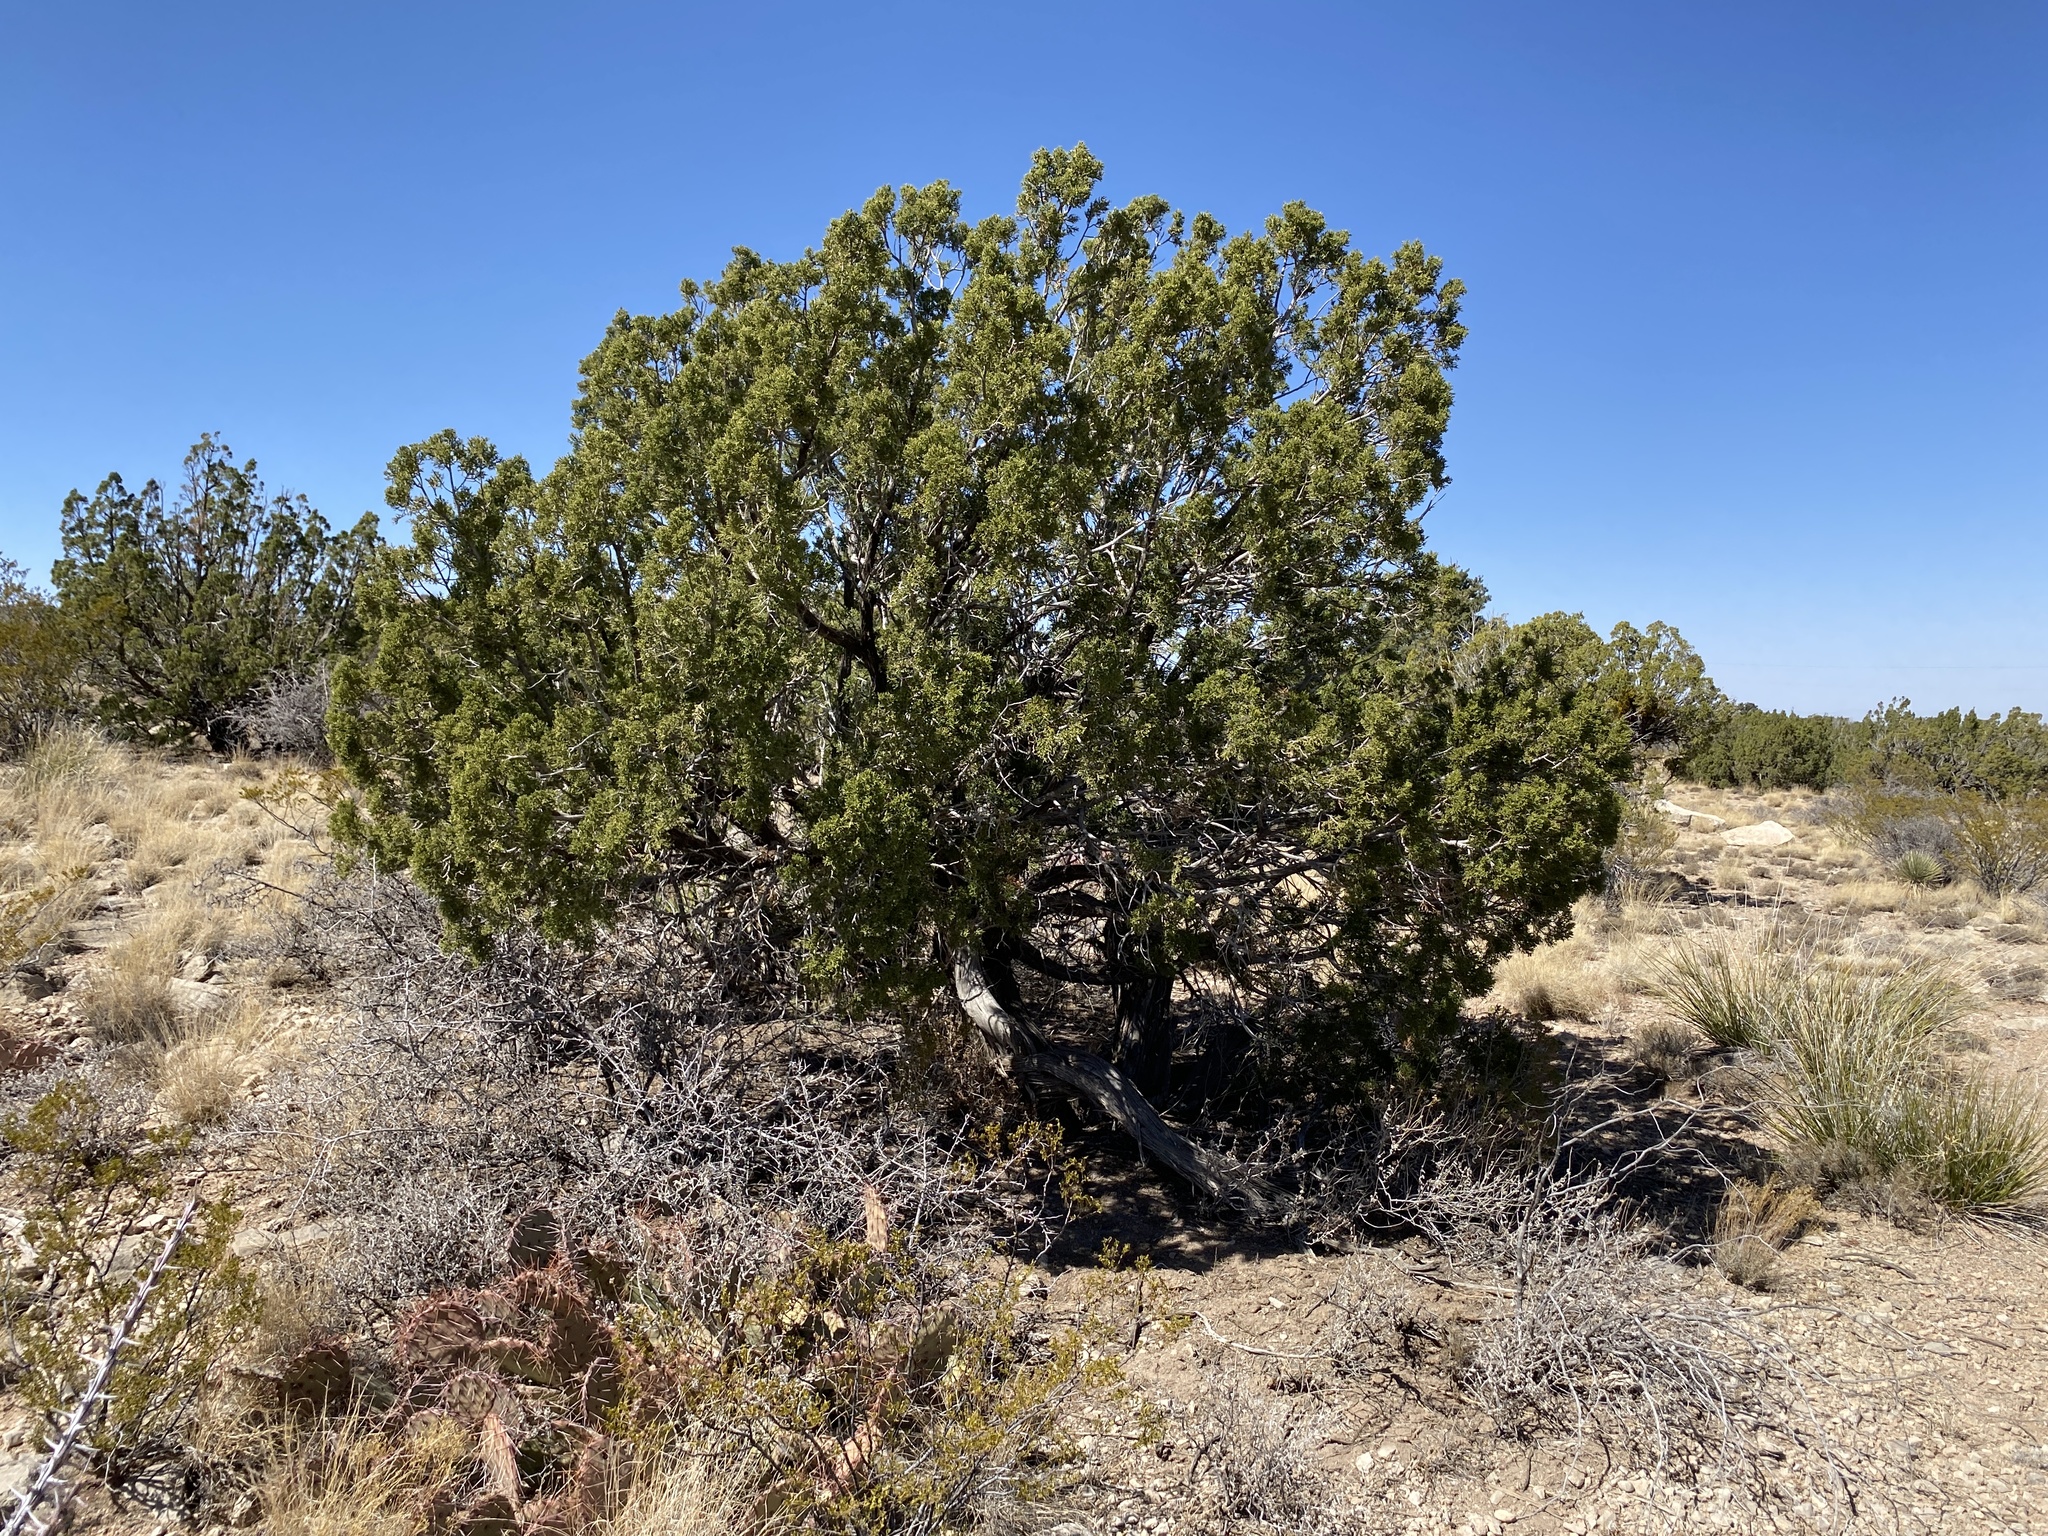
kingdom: Plantae
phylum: Tracheophyta
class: Pinopsida
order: Pinales
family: Cupressaceae
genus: Juniperus
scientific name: Juniperus monosperma
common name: One-seed juniper
